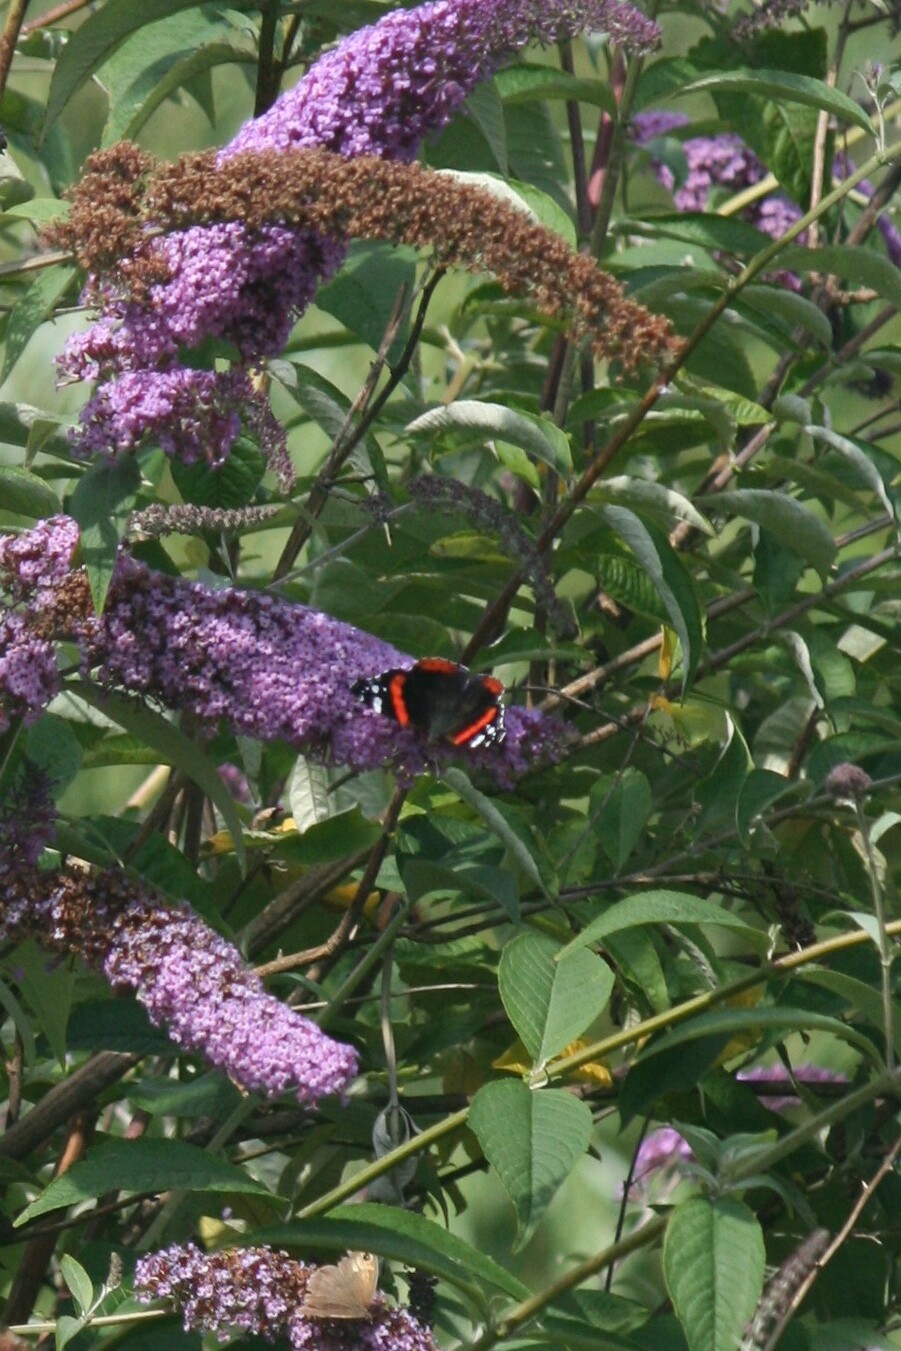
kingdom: Animalia
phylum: Arthropoda
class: Insecta
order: Lepidoptera
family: Nymphalidae
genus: Vanessa
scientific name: Vanessa atalanta
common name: Red admiral
